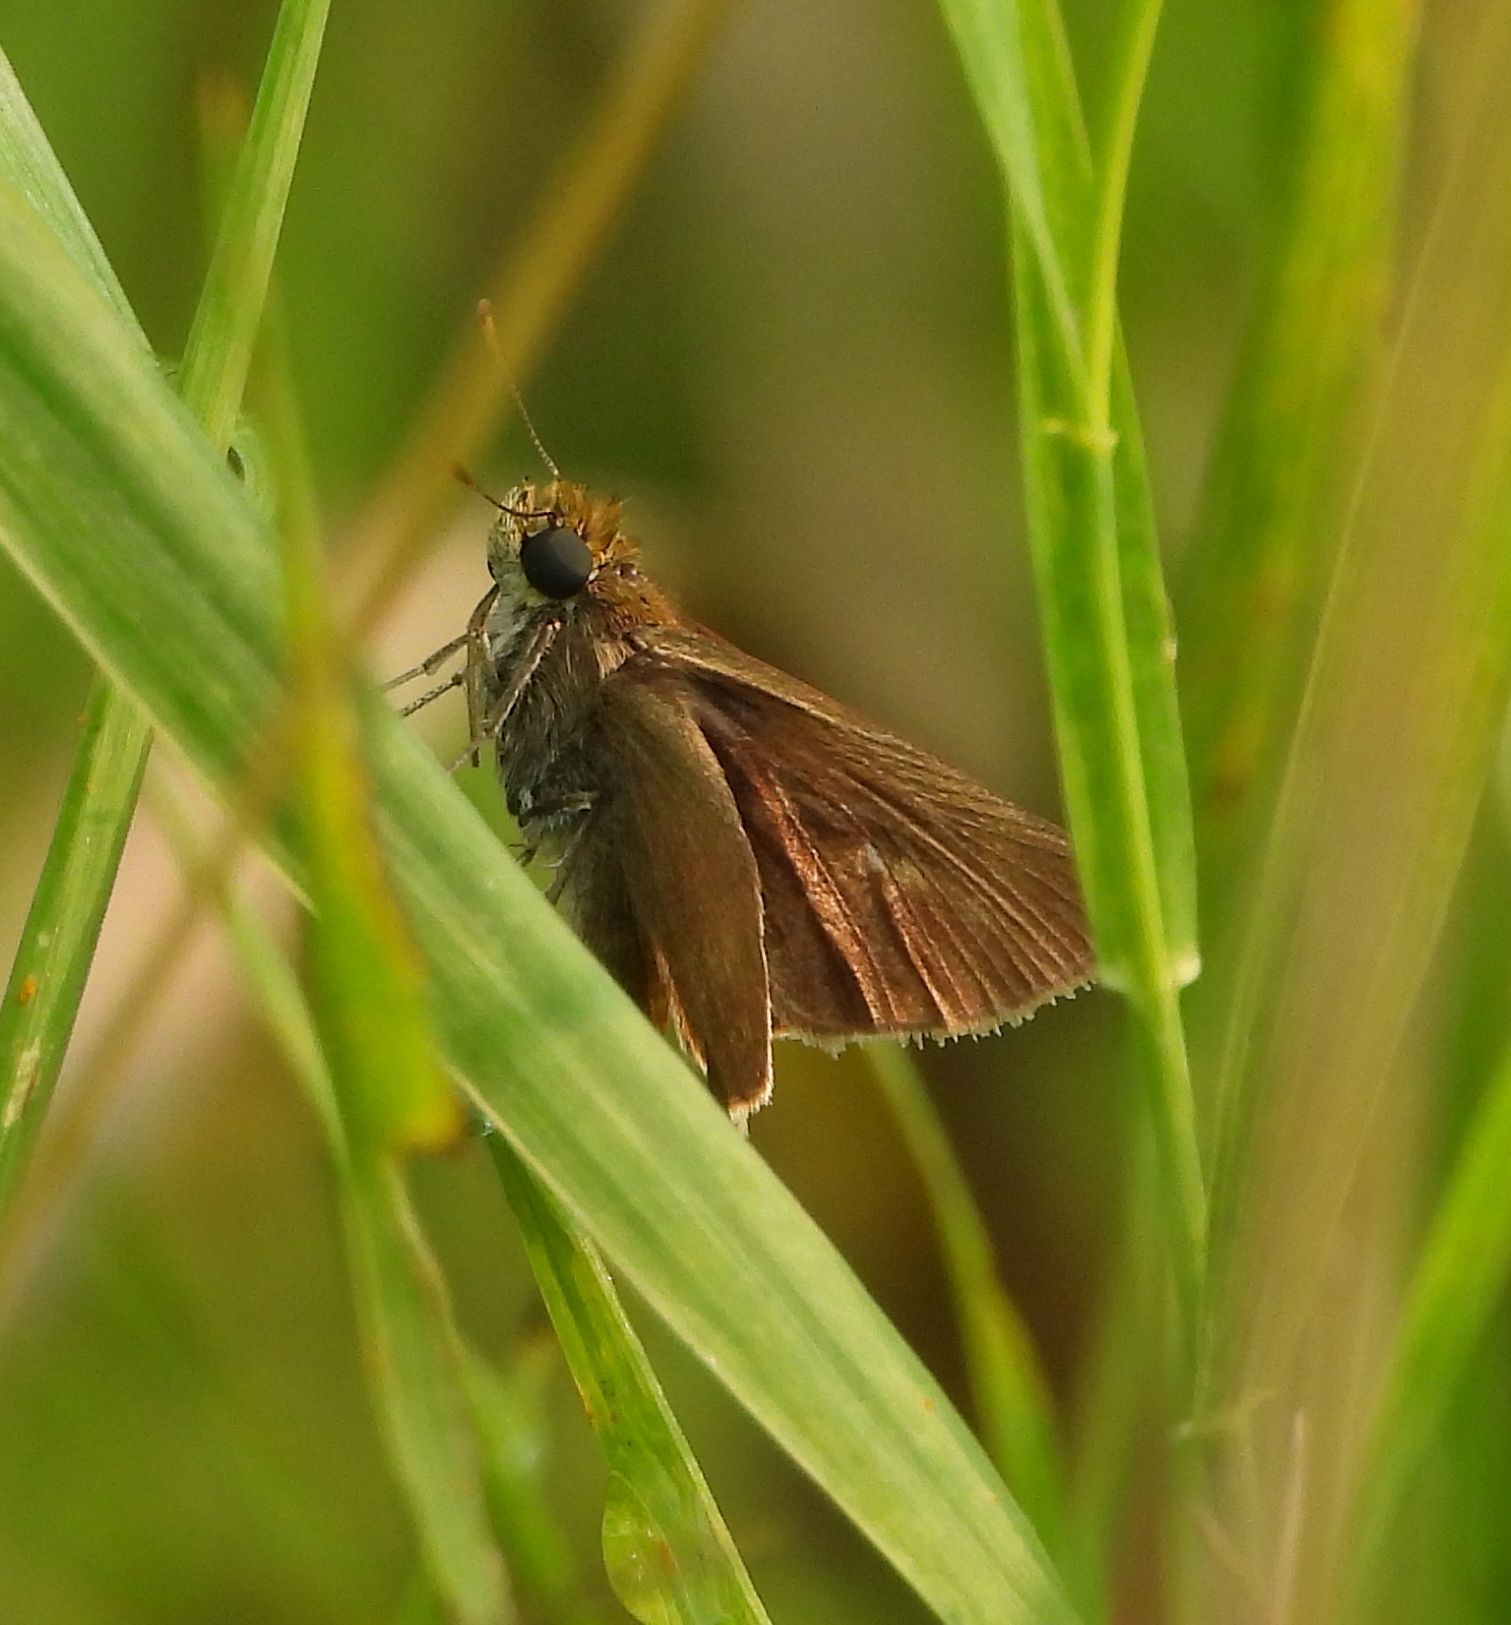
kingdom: Animalia
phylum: Arthropoda
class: Insecta
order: Lepidoptera
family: Hesperiidae
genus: Euphyes
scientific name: Euphyes vestris
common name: Dun skipper
